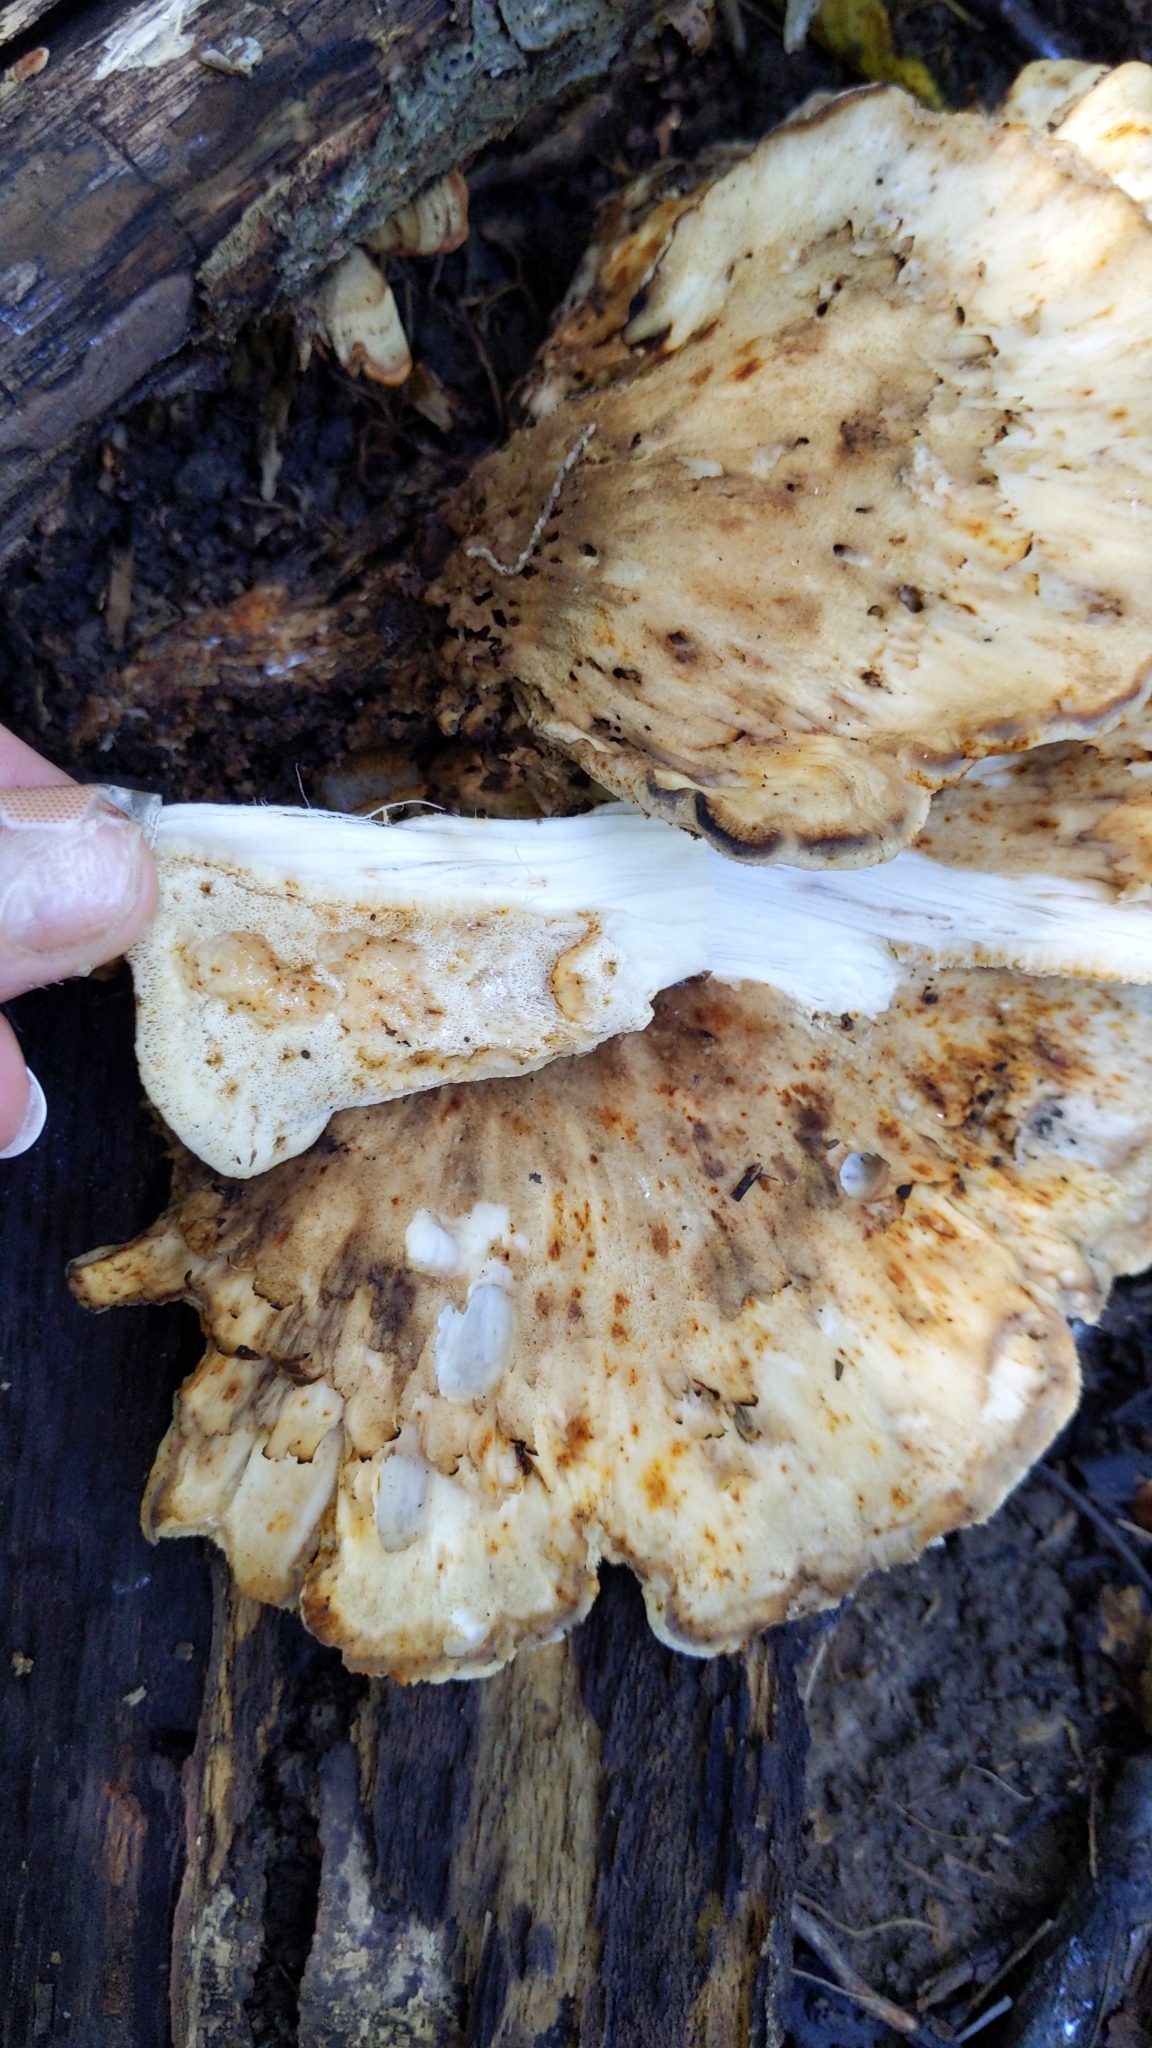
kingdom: Fungi
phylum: Basidiomycota
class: Agaricomycetes
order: Polyporales
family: Meripilaceae
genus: Meripilus
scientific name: Meripilus sumstinei
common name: Black-staining polypore
